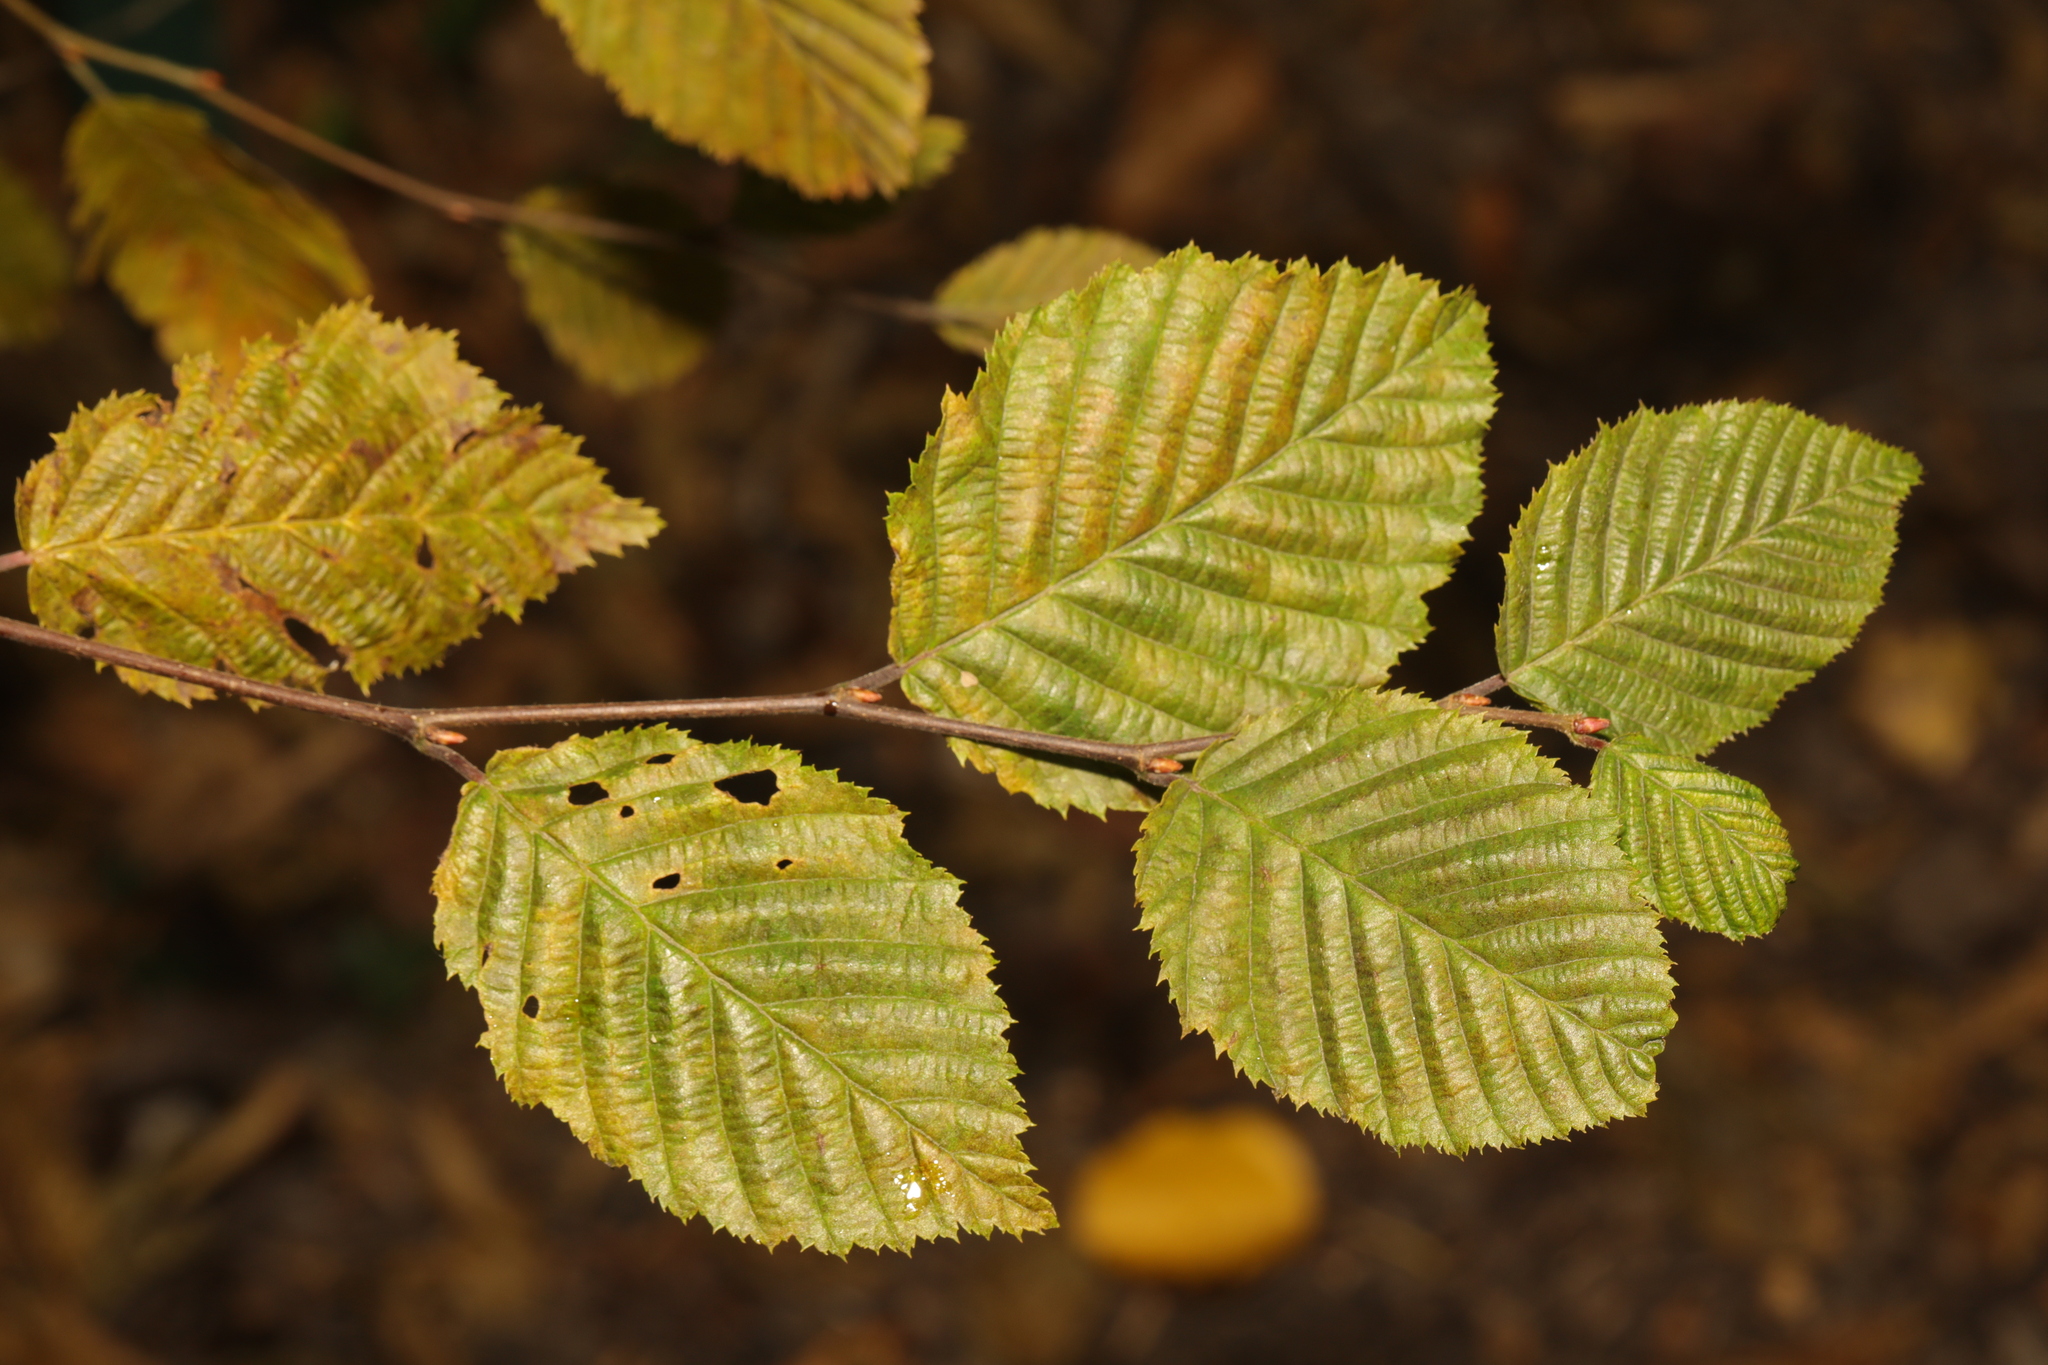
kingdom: Plantae
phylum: Tracheophyta
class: Magnoliopsida
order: Fagales
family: Betulaceae
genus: Carpinus
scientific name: Carpinus betulus
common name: Hornbeam
